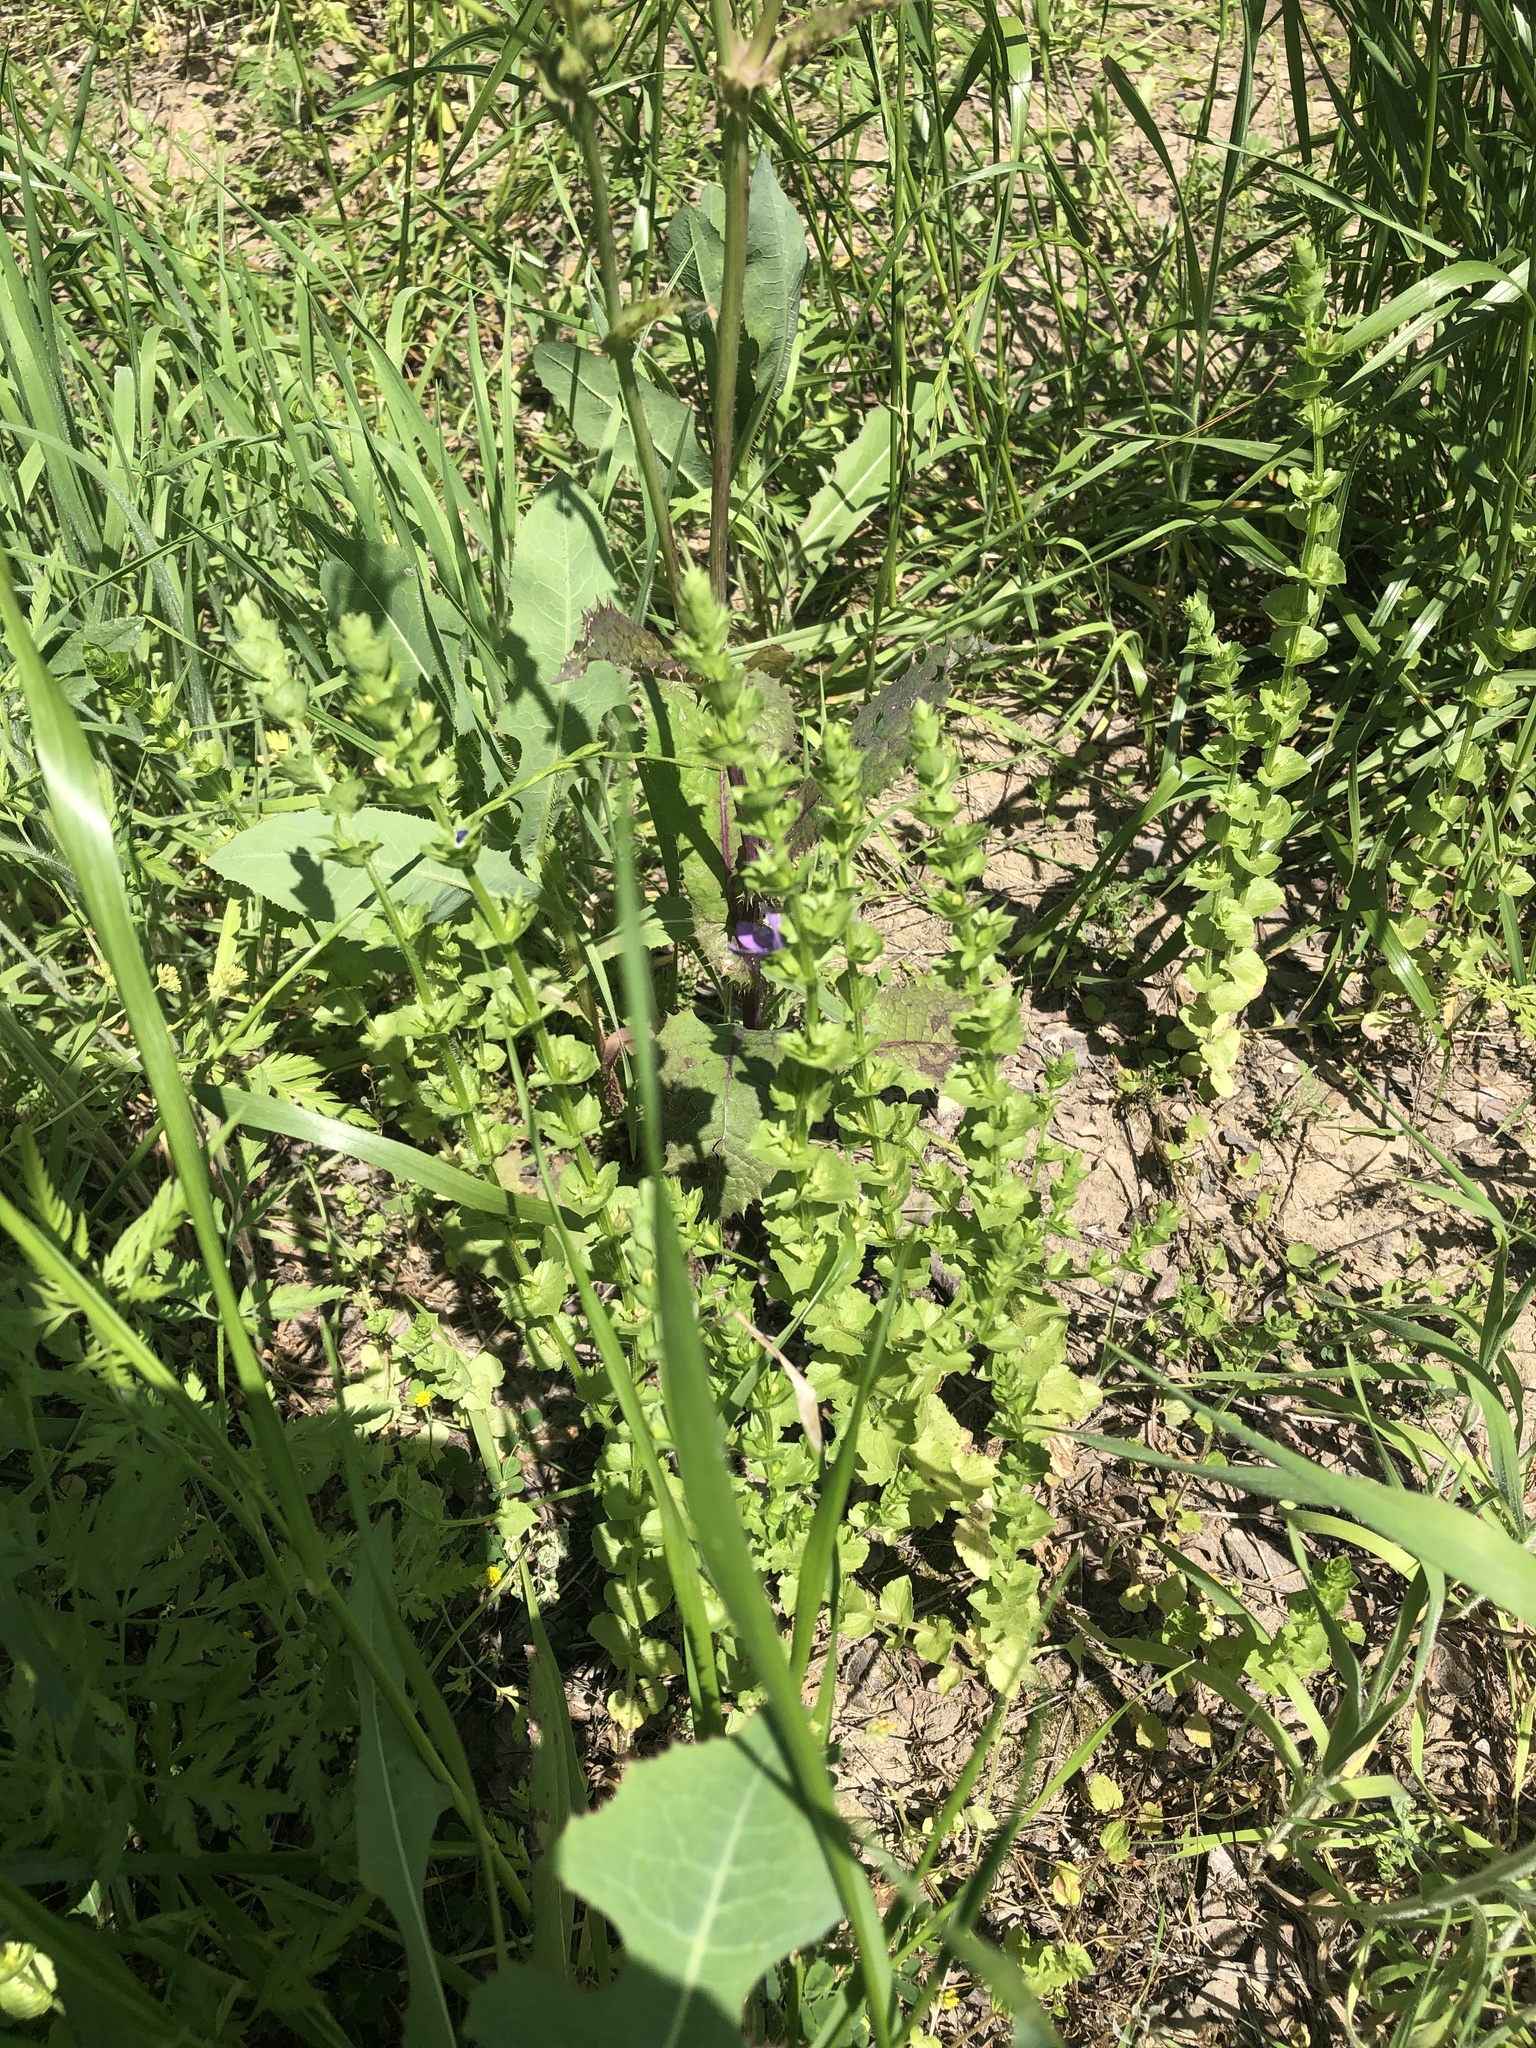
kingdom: Plantae
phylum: Tracheophyta
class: Magnoliopsida
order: Asterales
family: Campanulaceae
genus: Triodanis
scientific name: Triodanis texana
